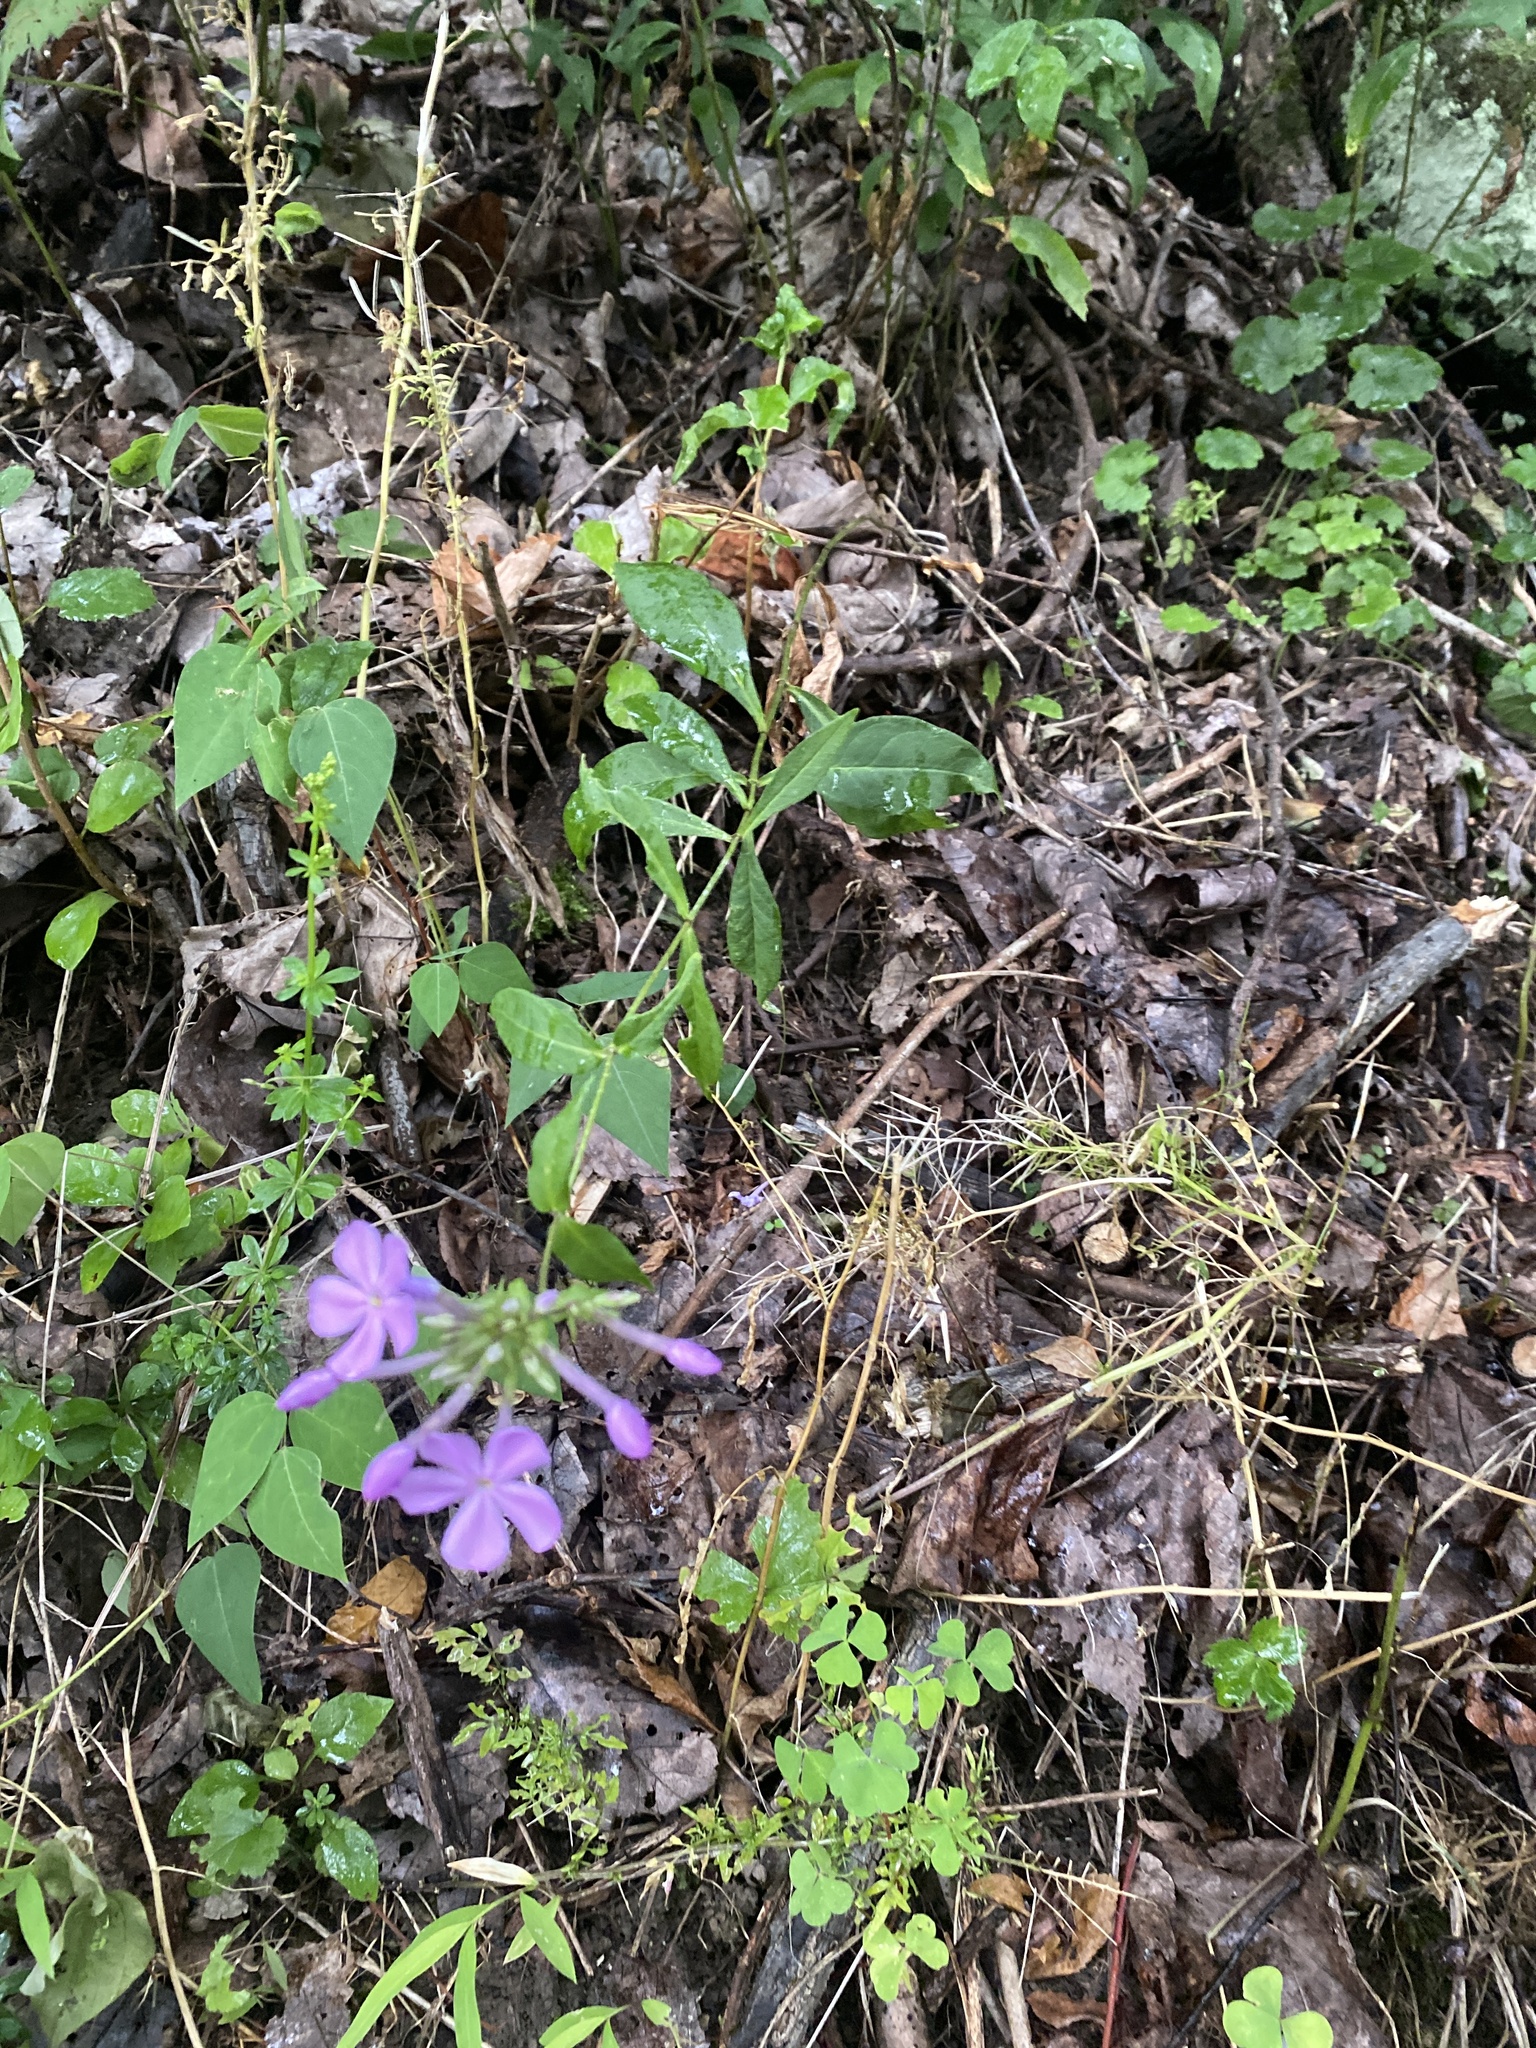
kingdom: Plantae
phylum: Tracheophyta
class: Magnoliopsida
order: Ericales
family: Polemoniaceae
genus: Phlox
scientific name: Phlox paniculata
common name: Fall phlox
